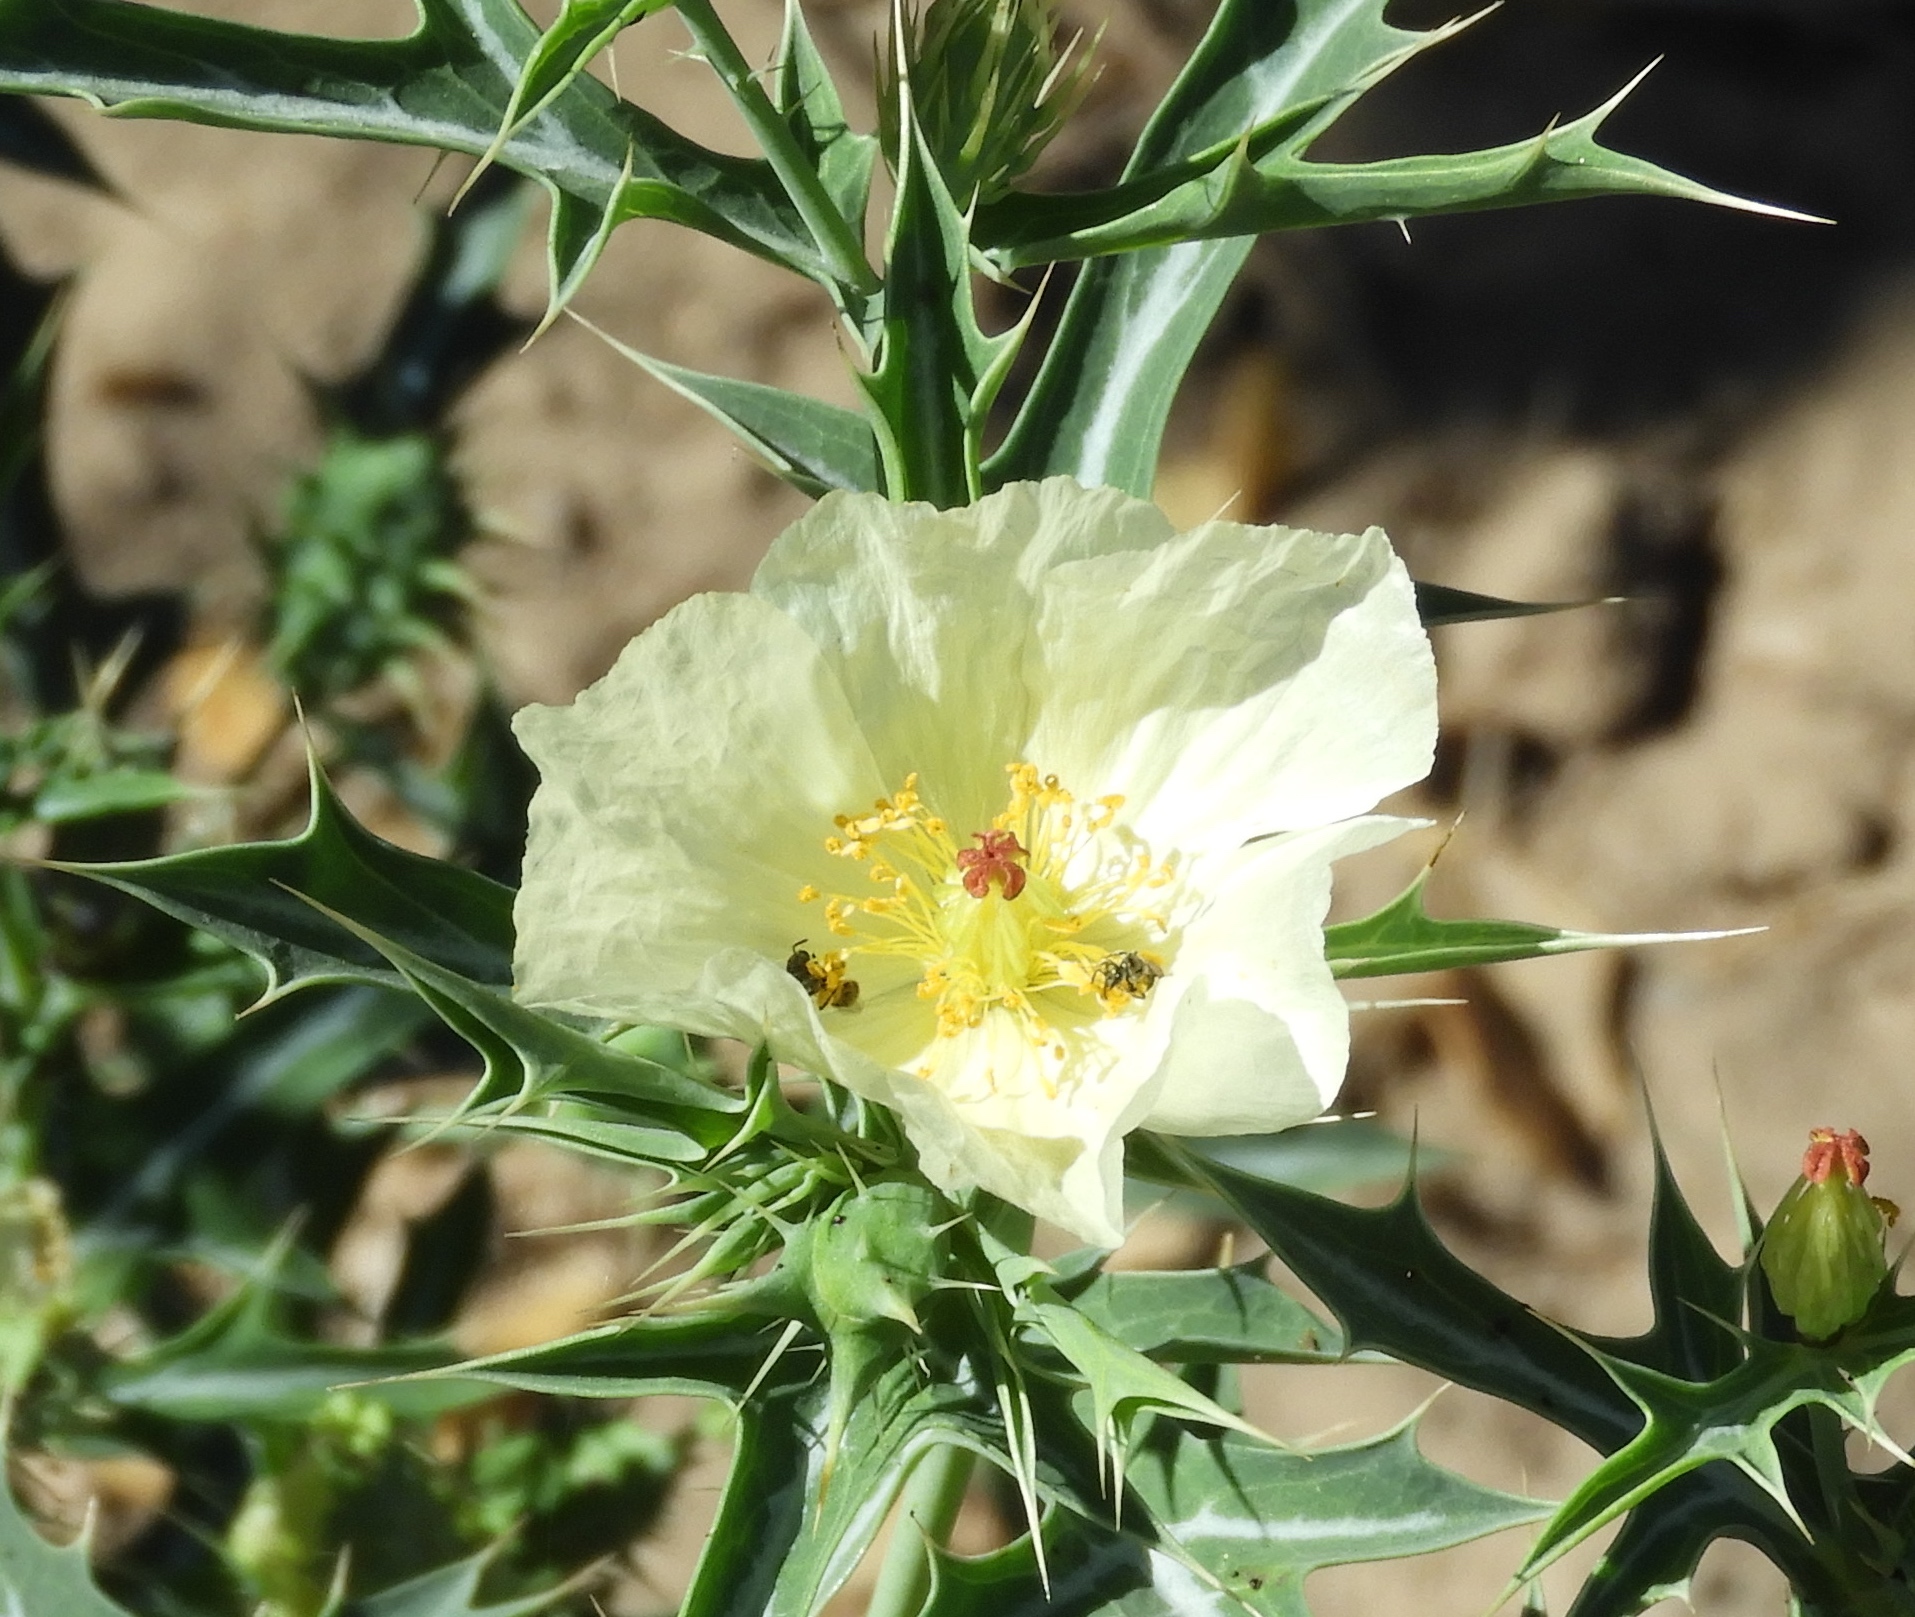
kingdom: Plantae
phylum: Tracheophyta
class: Magnoliopsida
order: Ranunculales
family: Papaveraceae
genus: Argemone
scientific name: Argemone ochroleuca
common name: White-flower mexican-poppy
